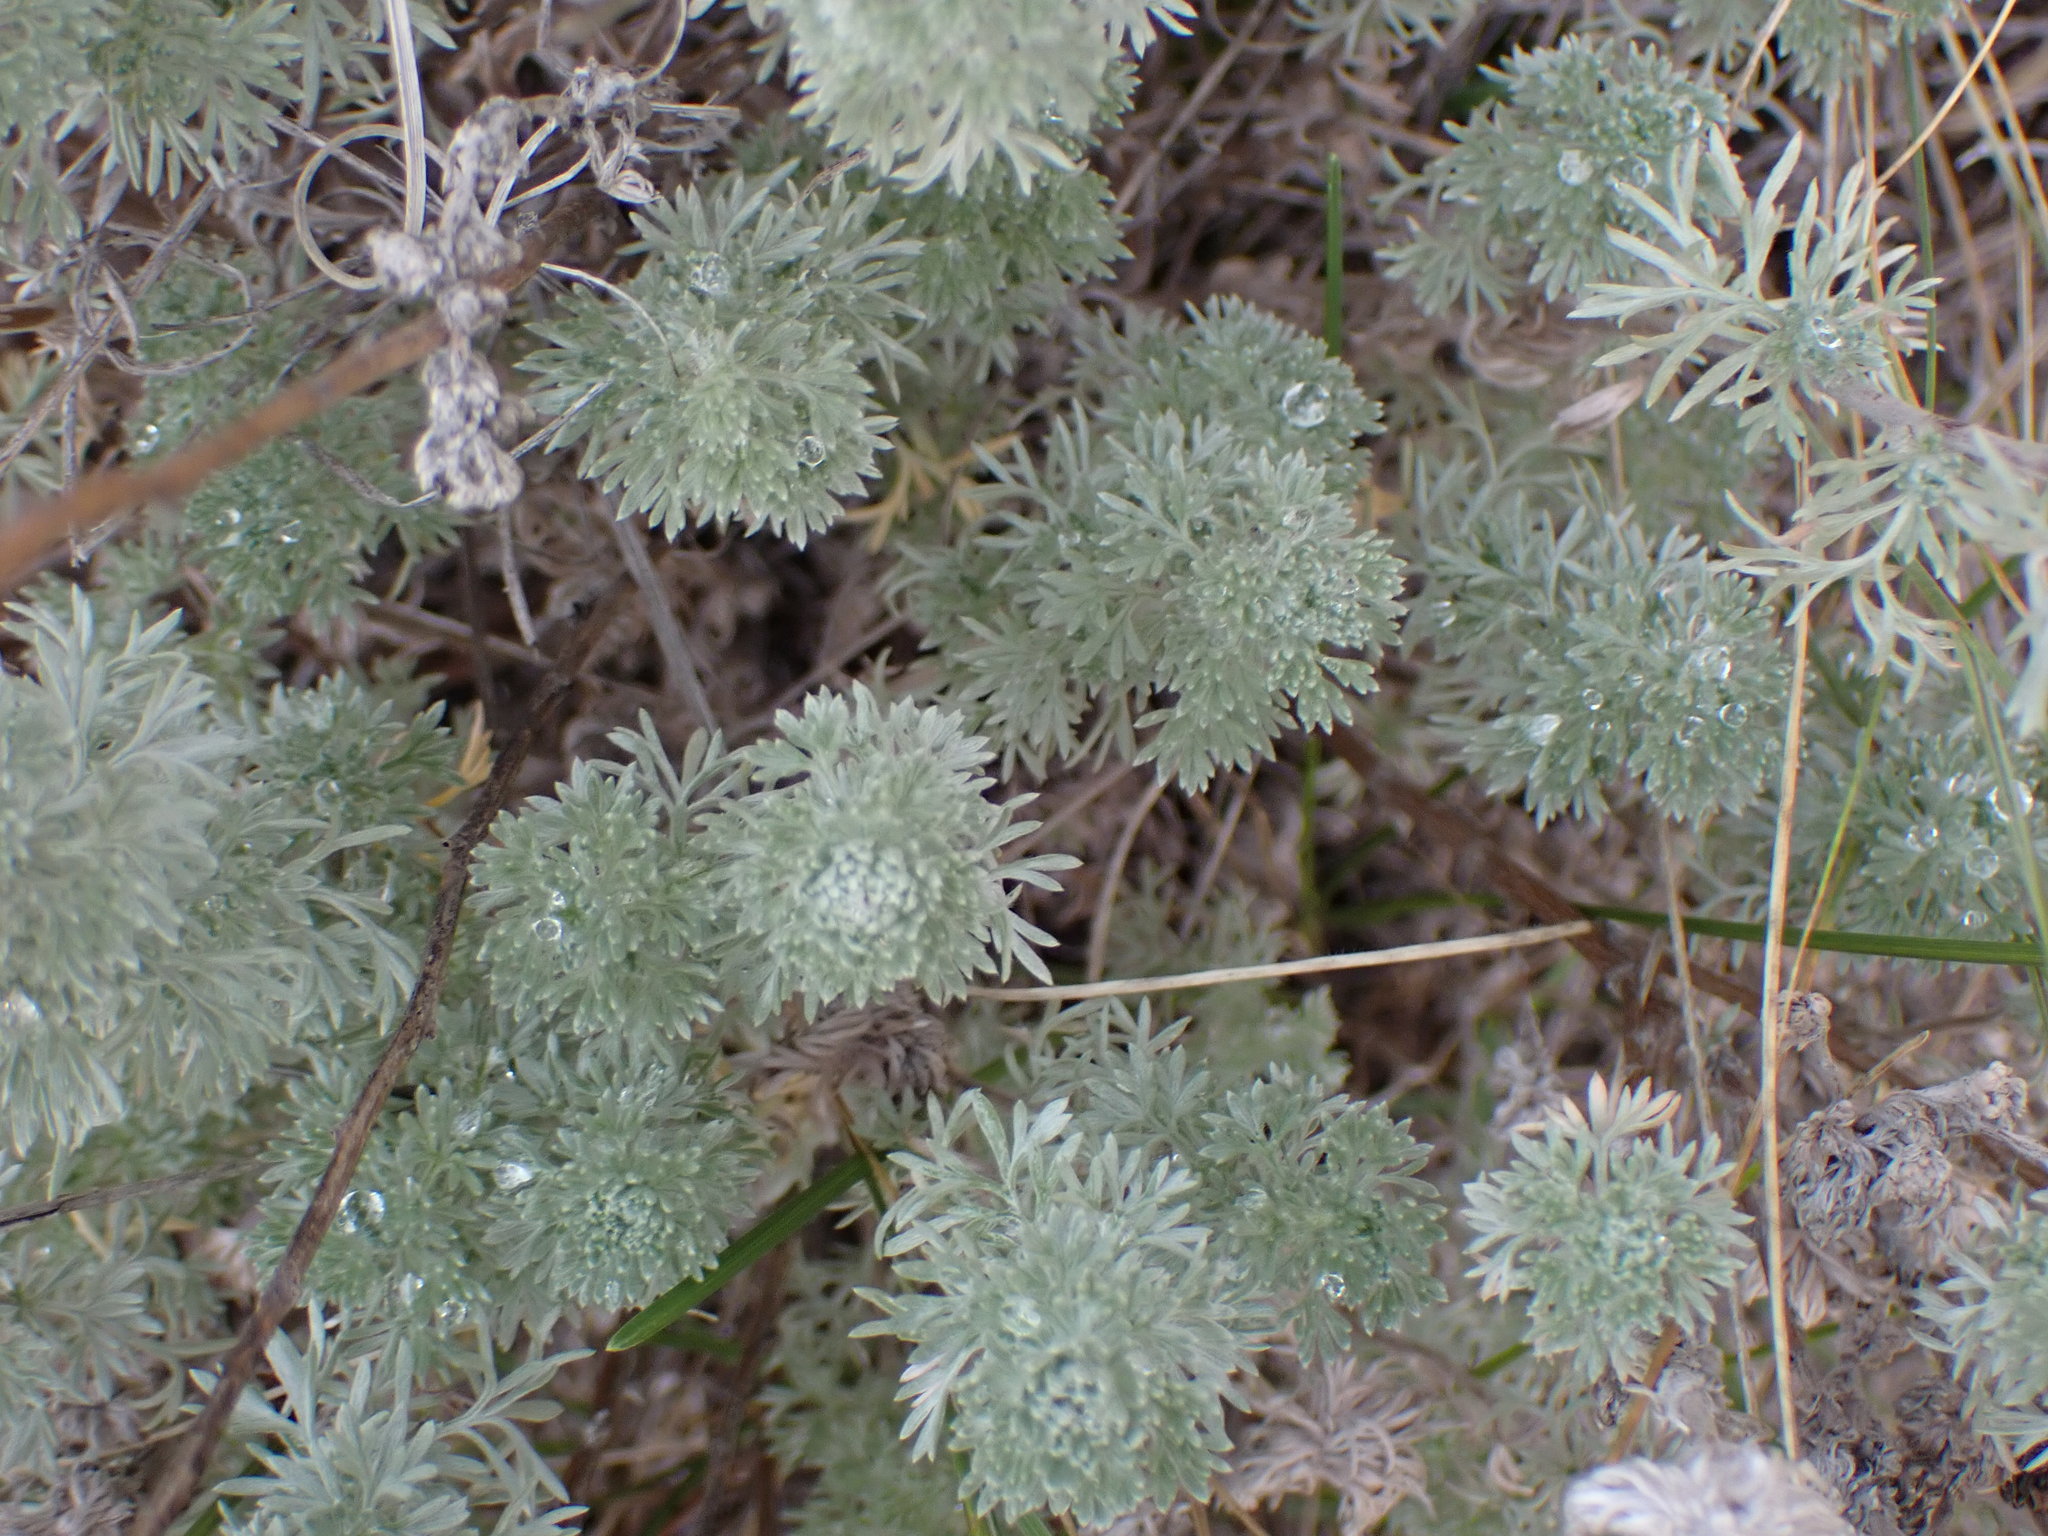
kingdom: Plantae
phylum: Tracheophyta
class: Magnoliopsida
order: Asterales
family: Asteraceae
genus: Artemisia
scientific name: Artemisia frigida
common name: Prairie sagewort
